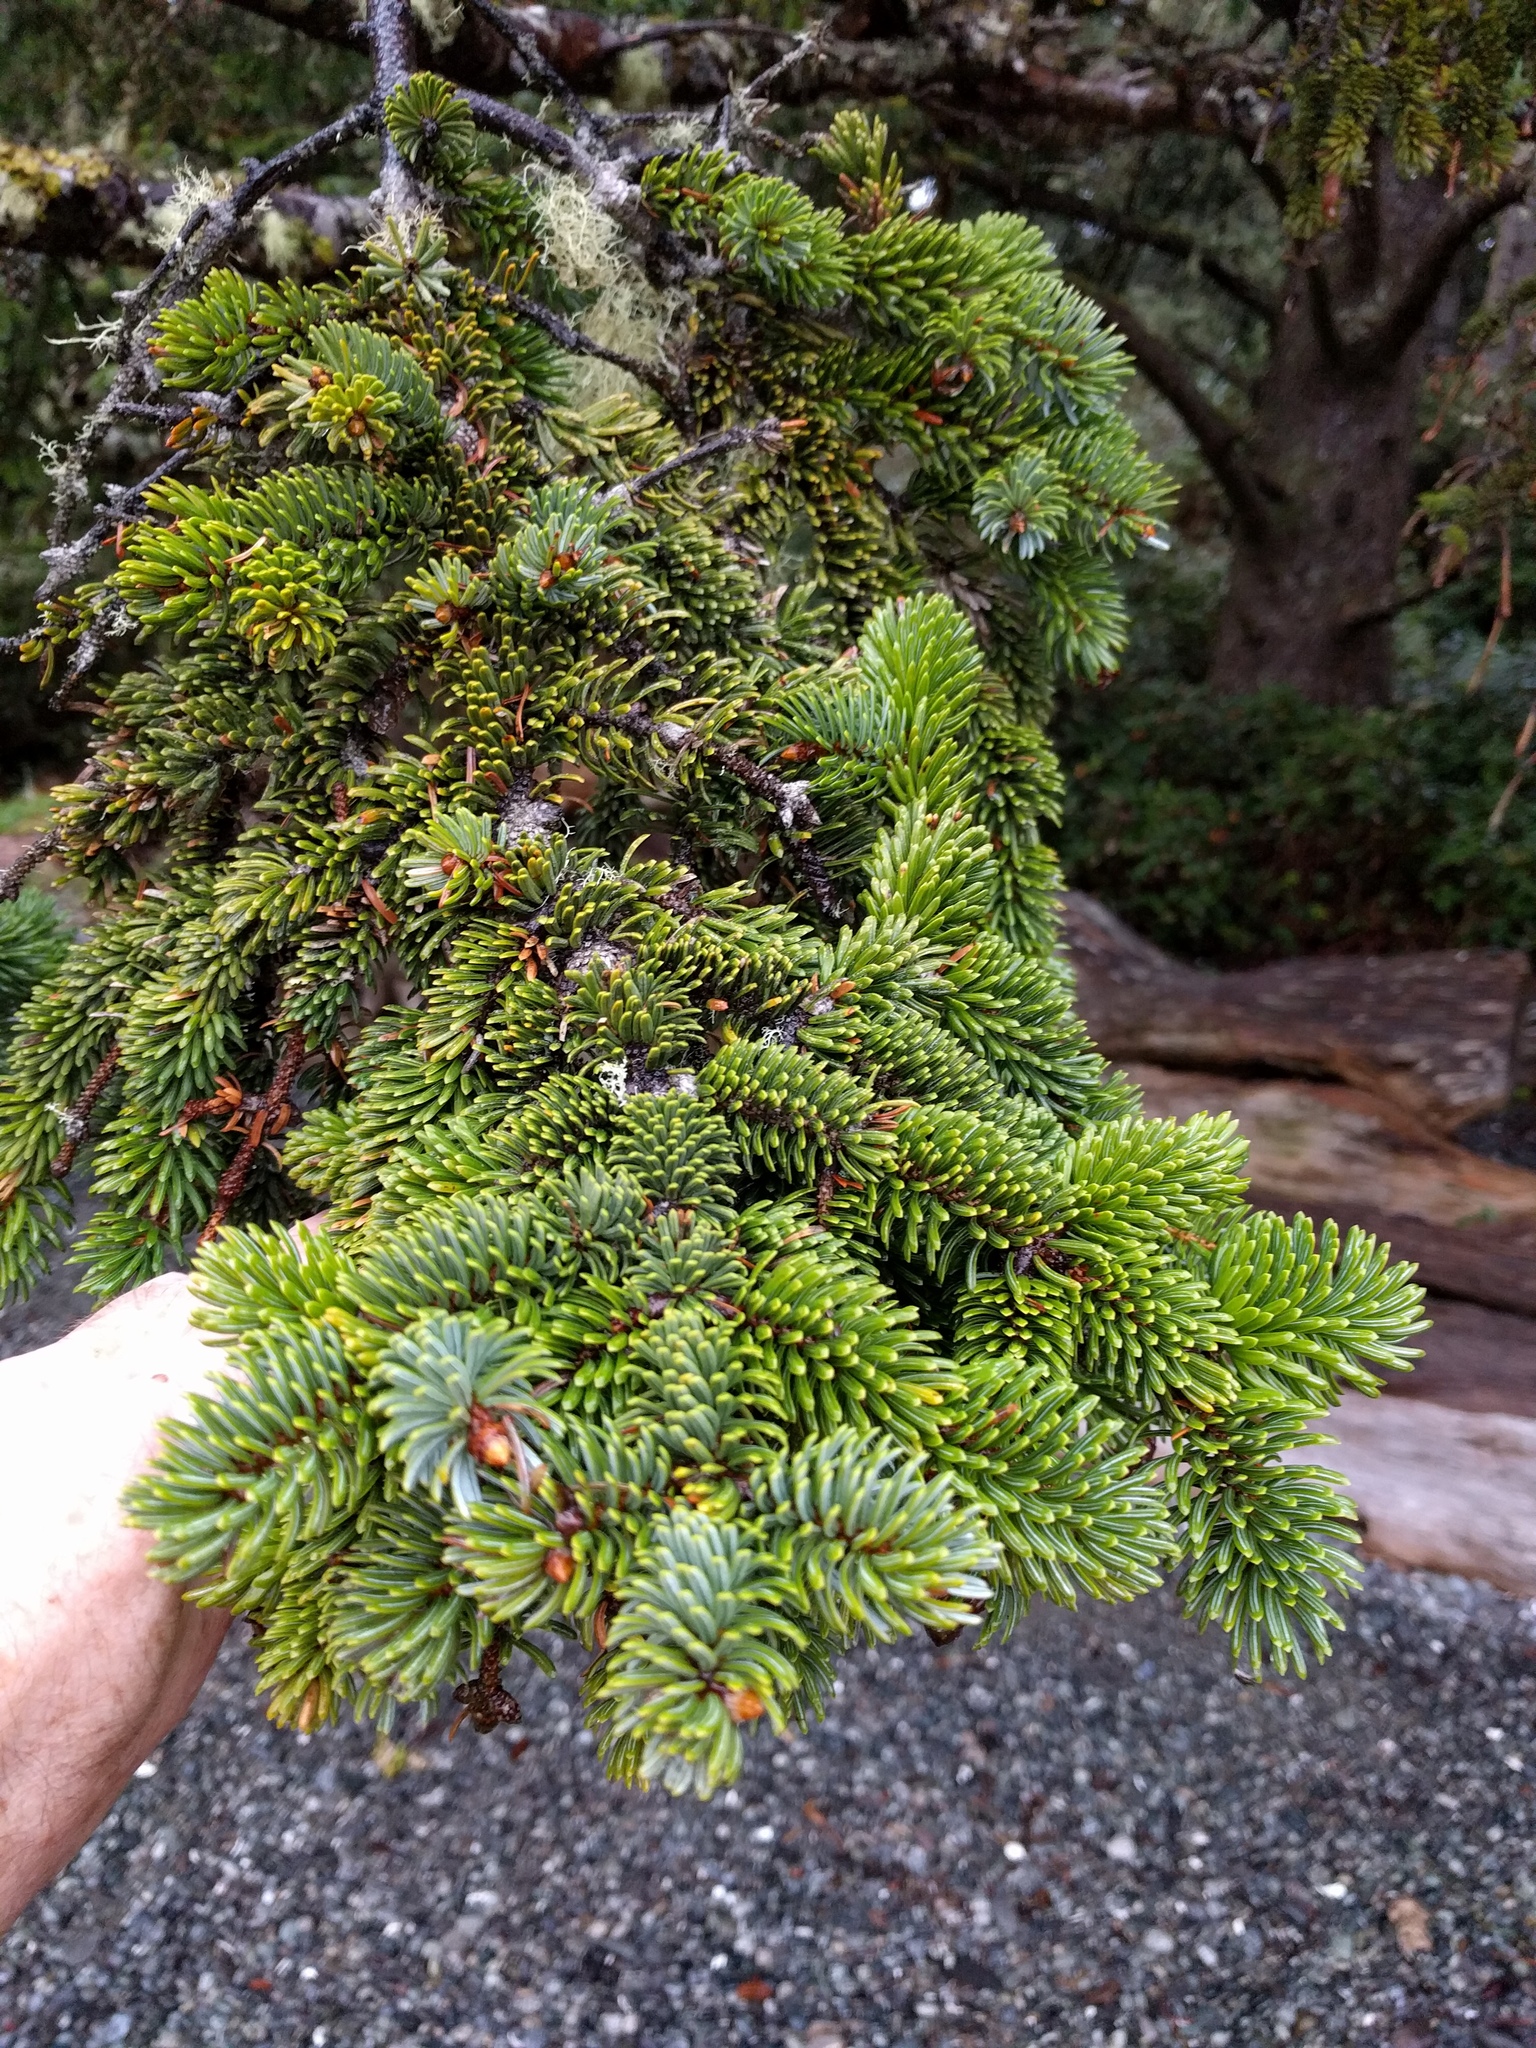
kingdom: Plantae
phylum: Tracheophyta
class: Pinopsida
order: Pinales
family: Pinaceae
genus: Picea
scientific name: Picea sitchensis
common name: Sitka spruce
